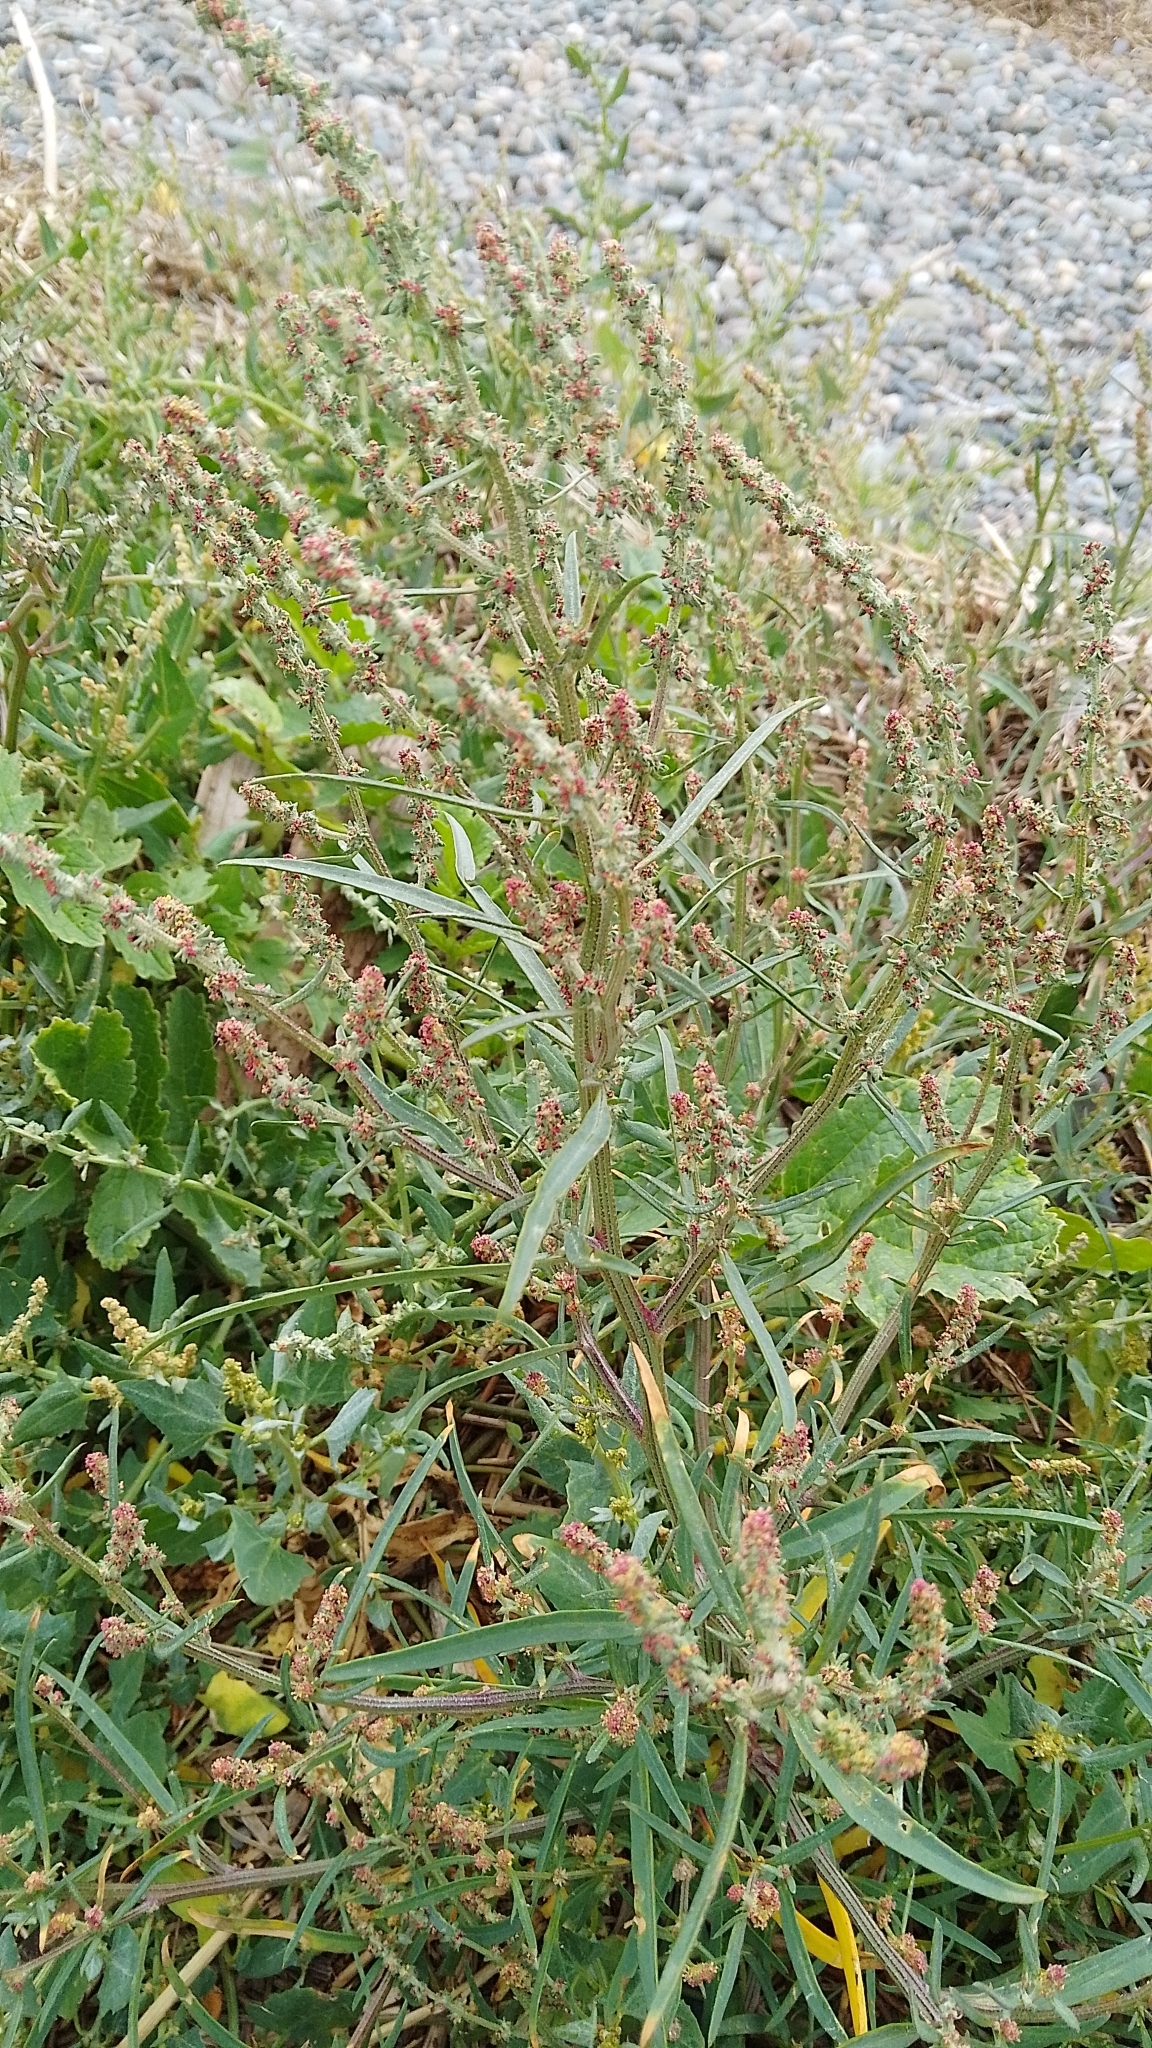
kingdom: Plantae
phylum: Tracheophyta
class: Magnoliopsida
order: Caryophyllales
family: Amaranthaceae
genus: Atriplex
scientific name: Atriplex littoralis
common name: Grass-leaved orache
